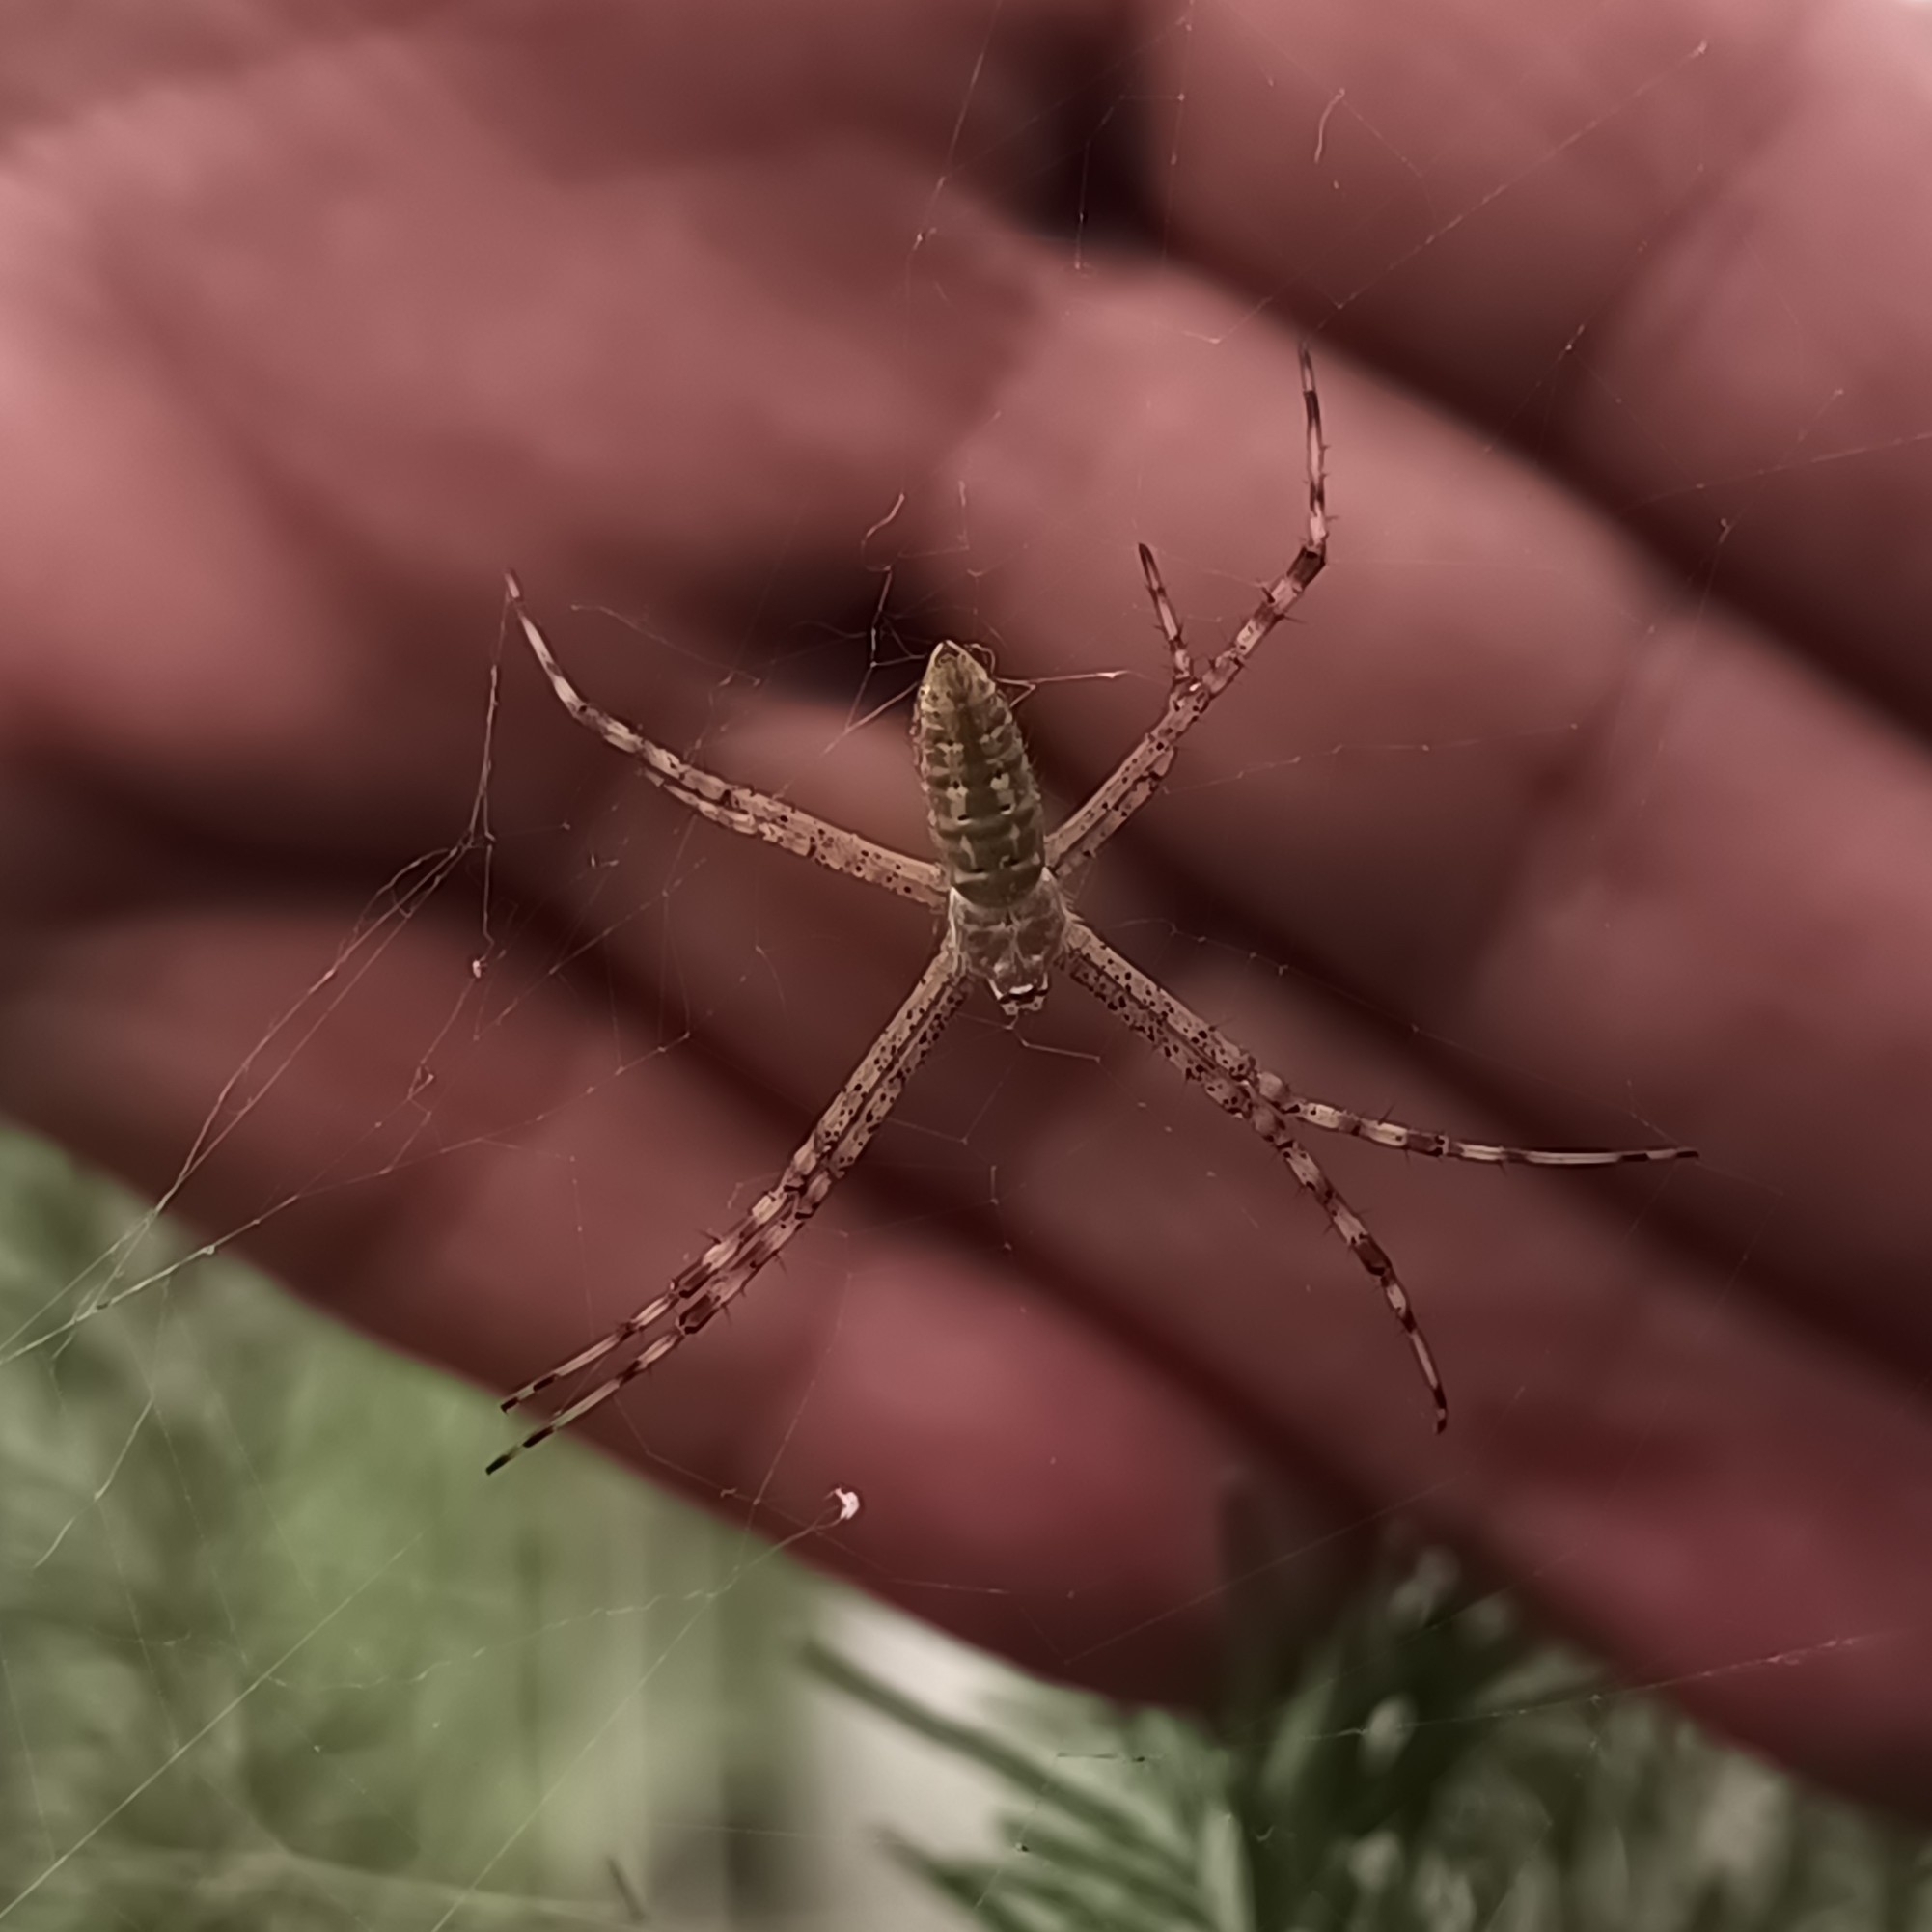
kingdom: Animalia
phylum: Arthropoda
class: Arachnida
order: Araneae
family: Araneidae
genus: Argiope
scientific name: Argiope trifasciata
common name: Banded garden spider
